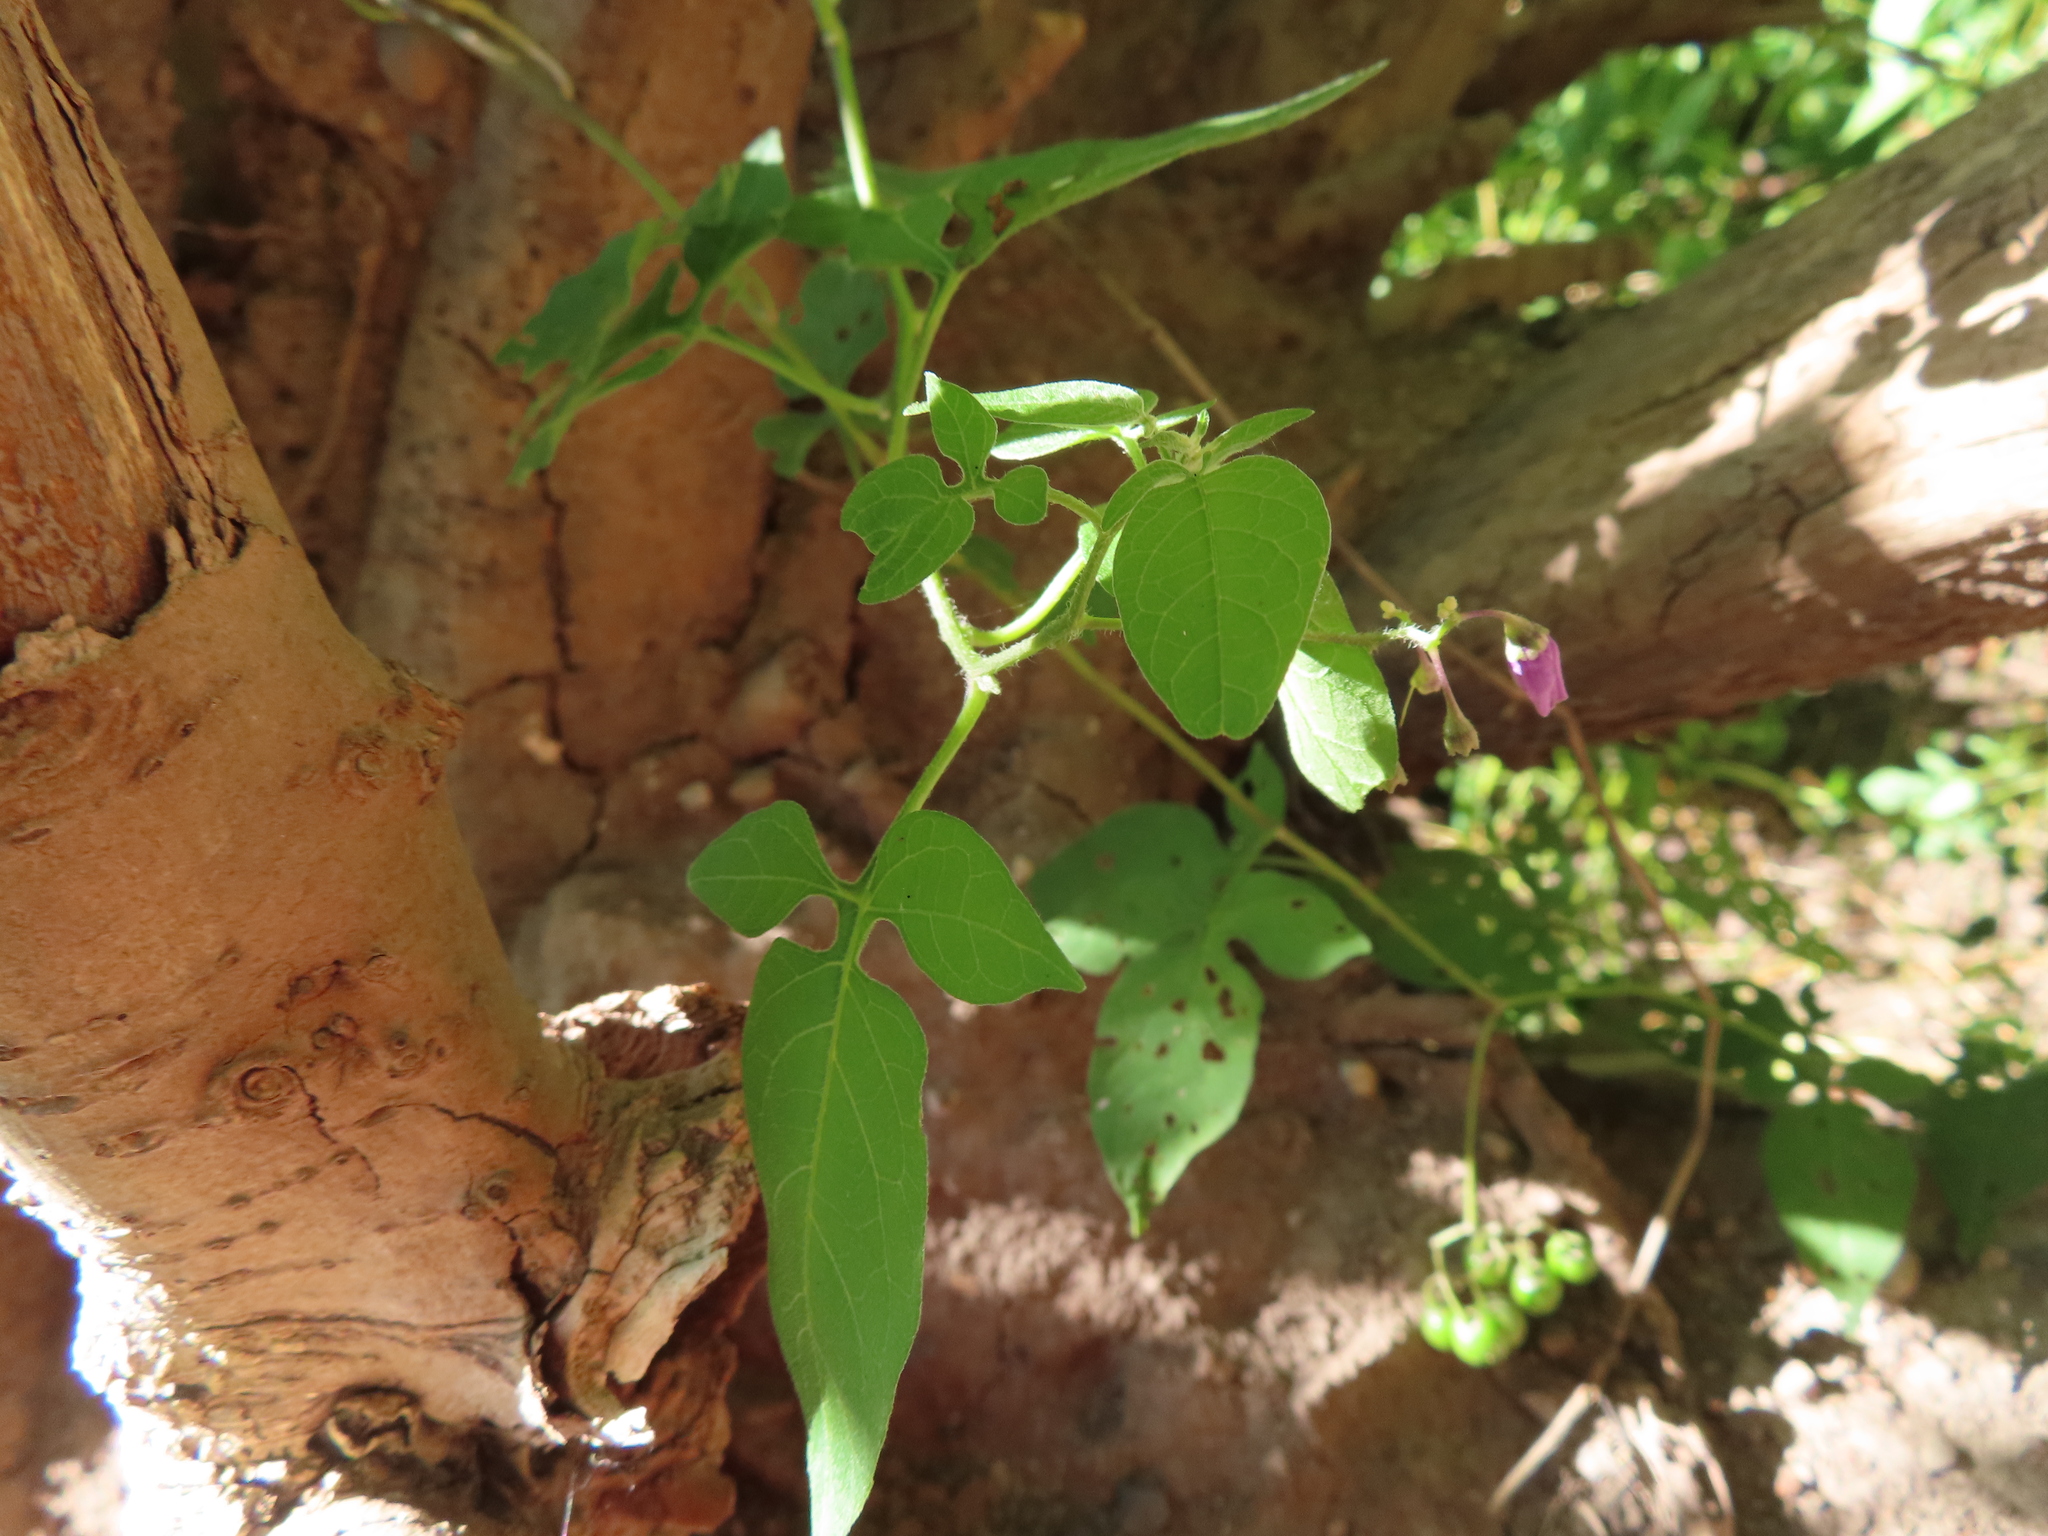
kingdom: Plantae
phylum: Tracheophyta
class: Magnoliopsida
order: Solanales
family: Solanaceae
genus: Solanum
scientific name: Solanum dulcamara
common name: Climbing nightshade
